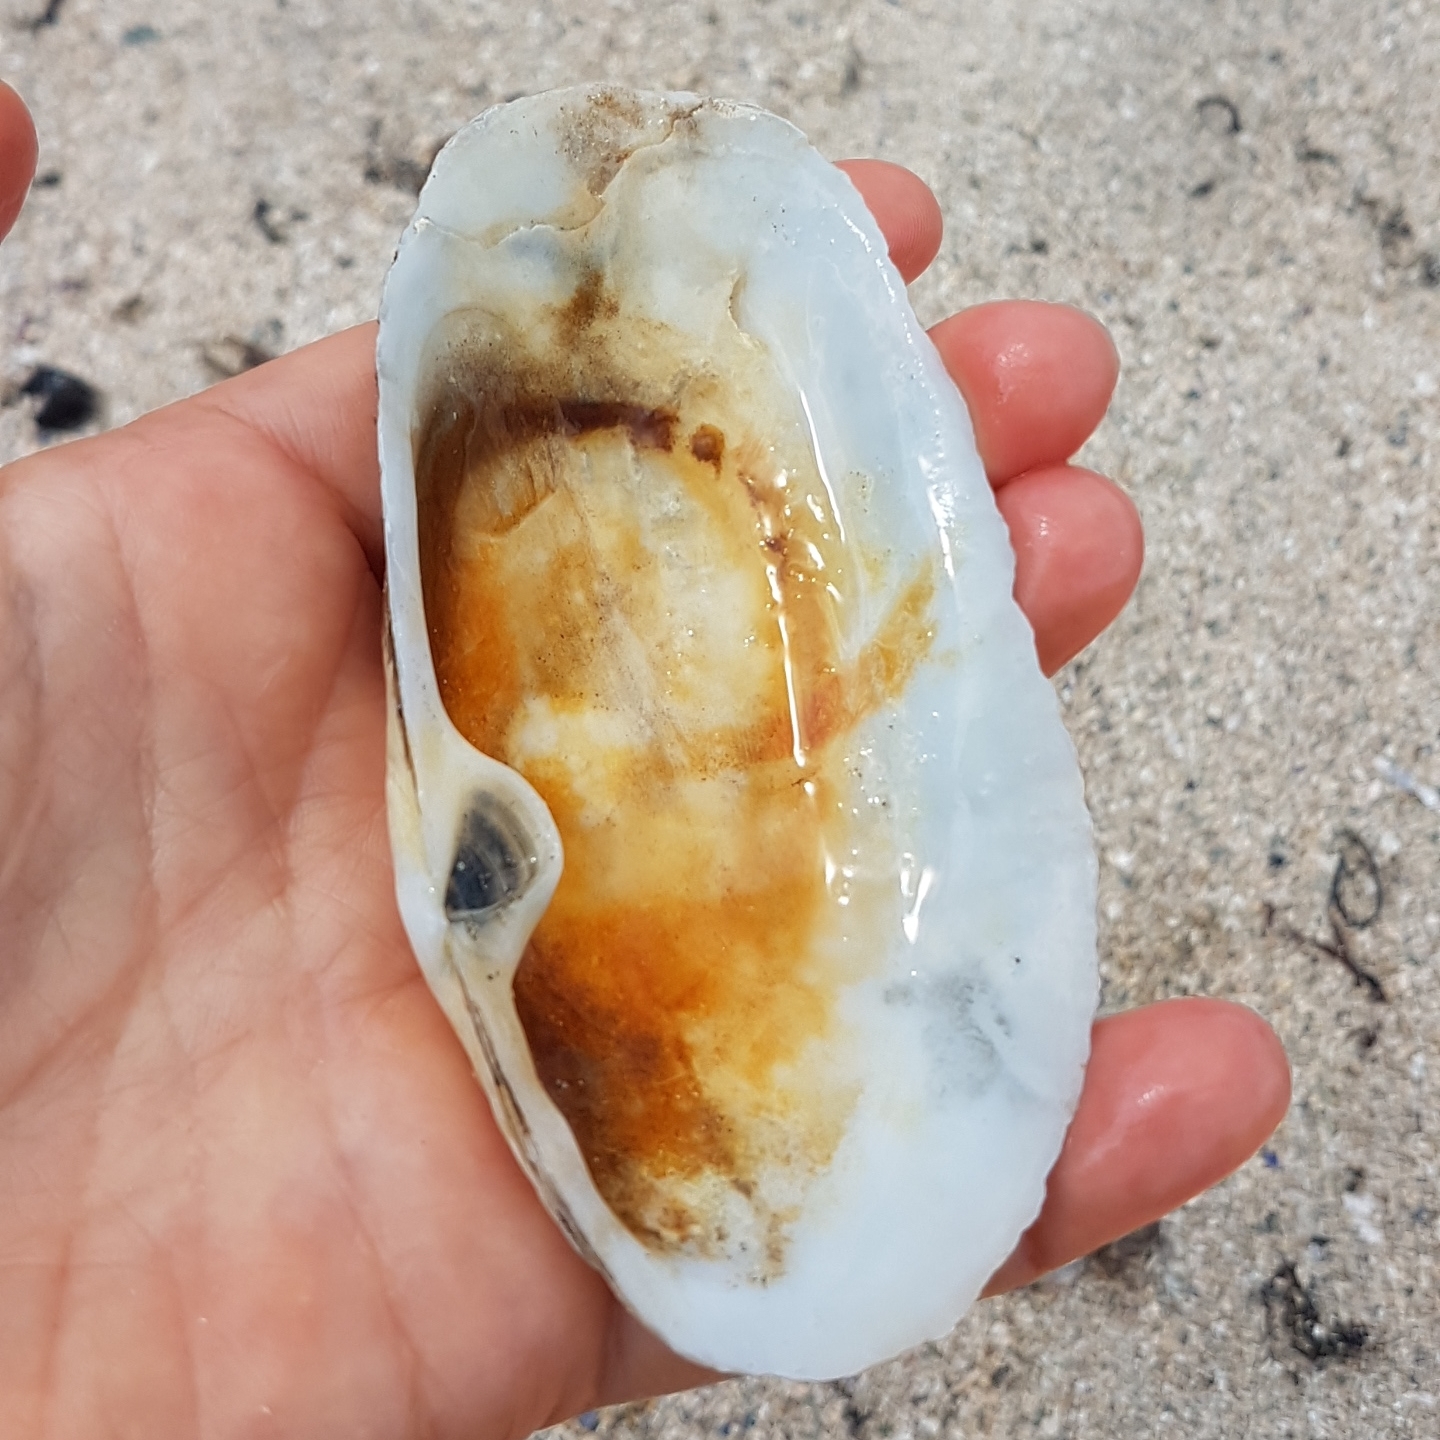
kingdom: Animalia
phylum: Mollusca
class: Bivalvia
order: Venerida
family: Mactridae
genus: Lutraria
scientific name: Lutraria angustior
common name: Narrow otter shell
